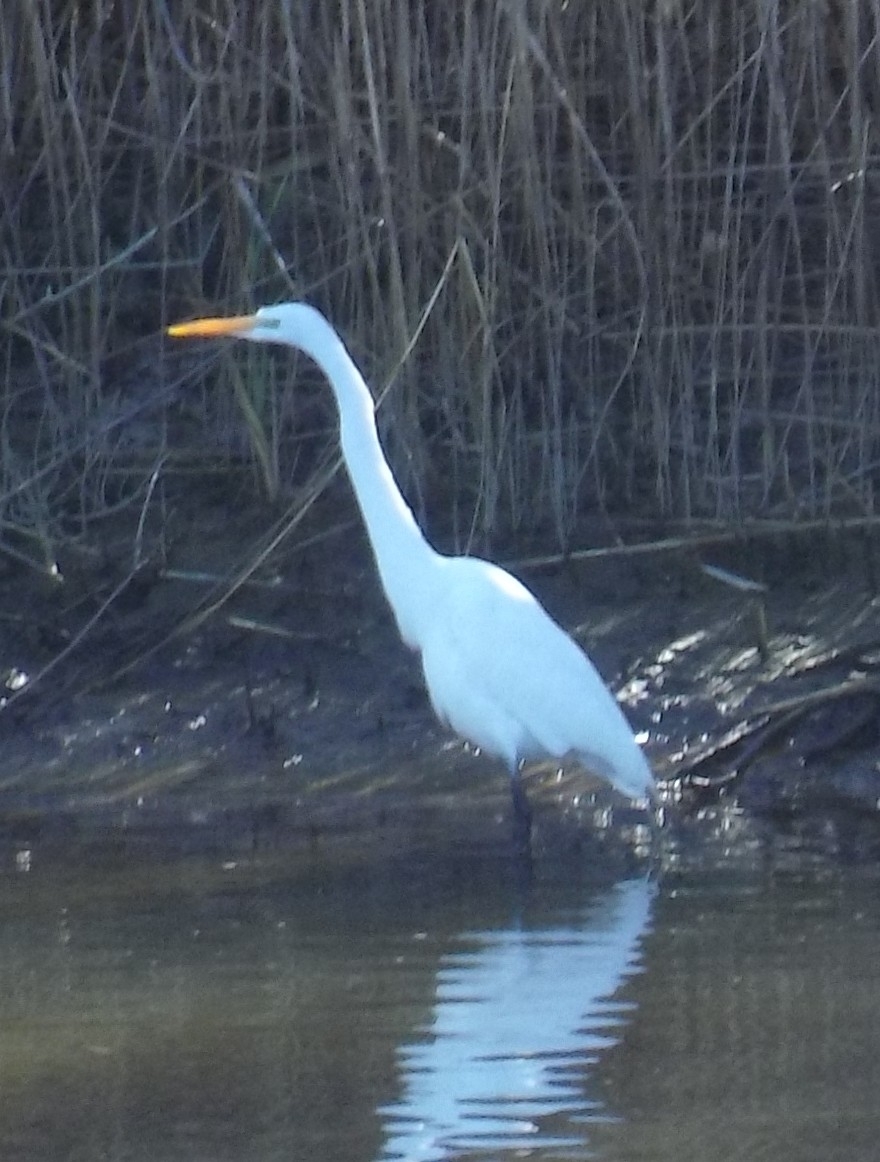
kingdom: Animalia
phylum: Chordata
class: Aves
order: Pelecaniformes
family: Ardeidae
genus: Ardea
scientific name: Ardea alba
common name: Great egret
